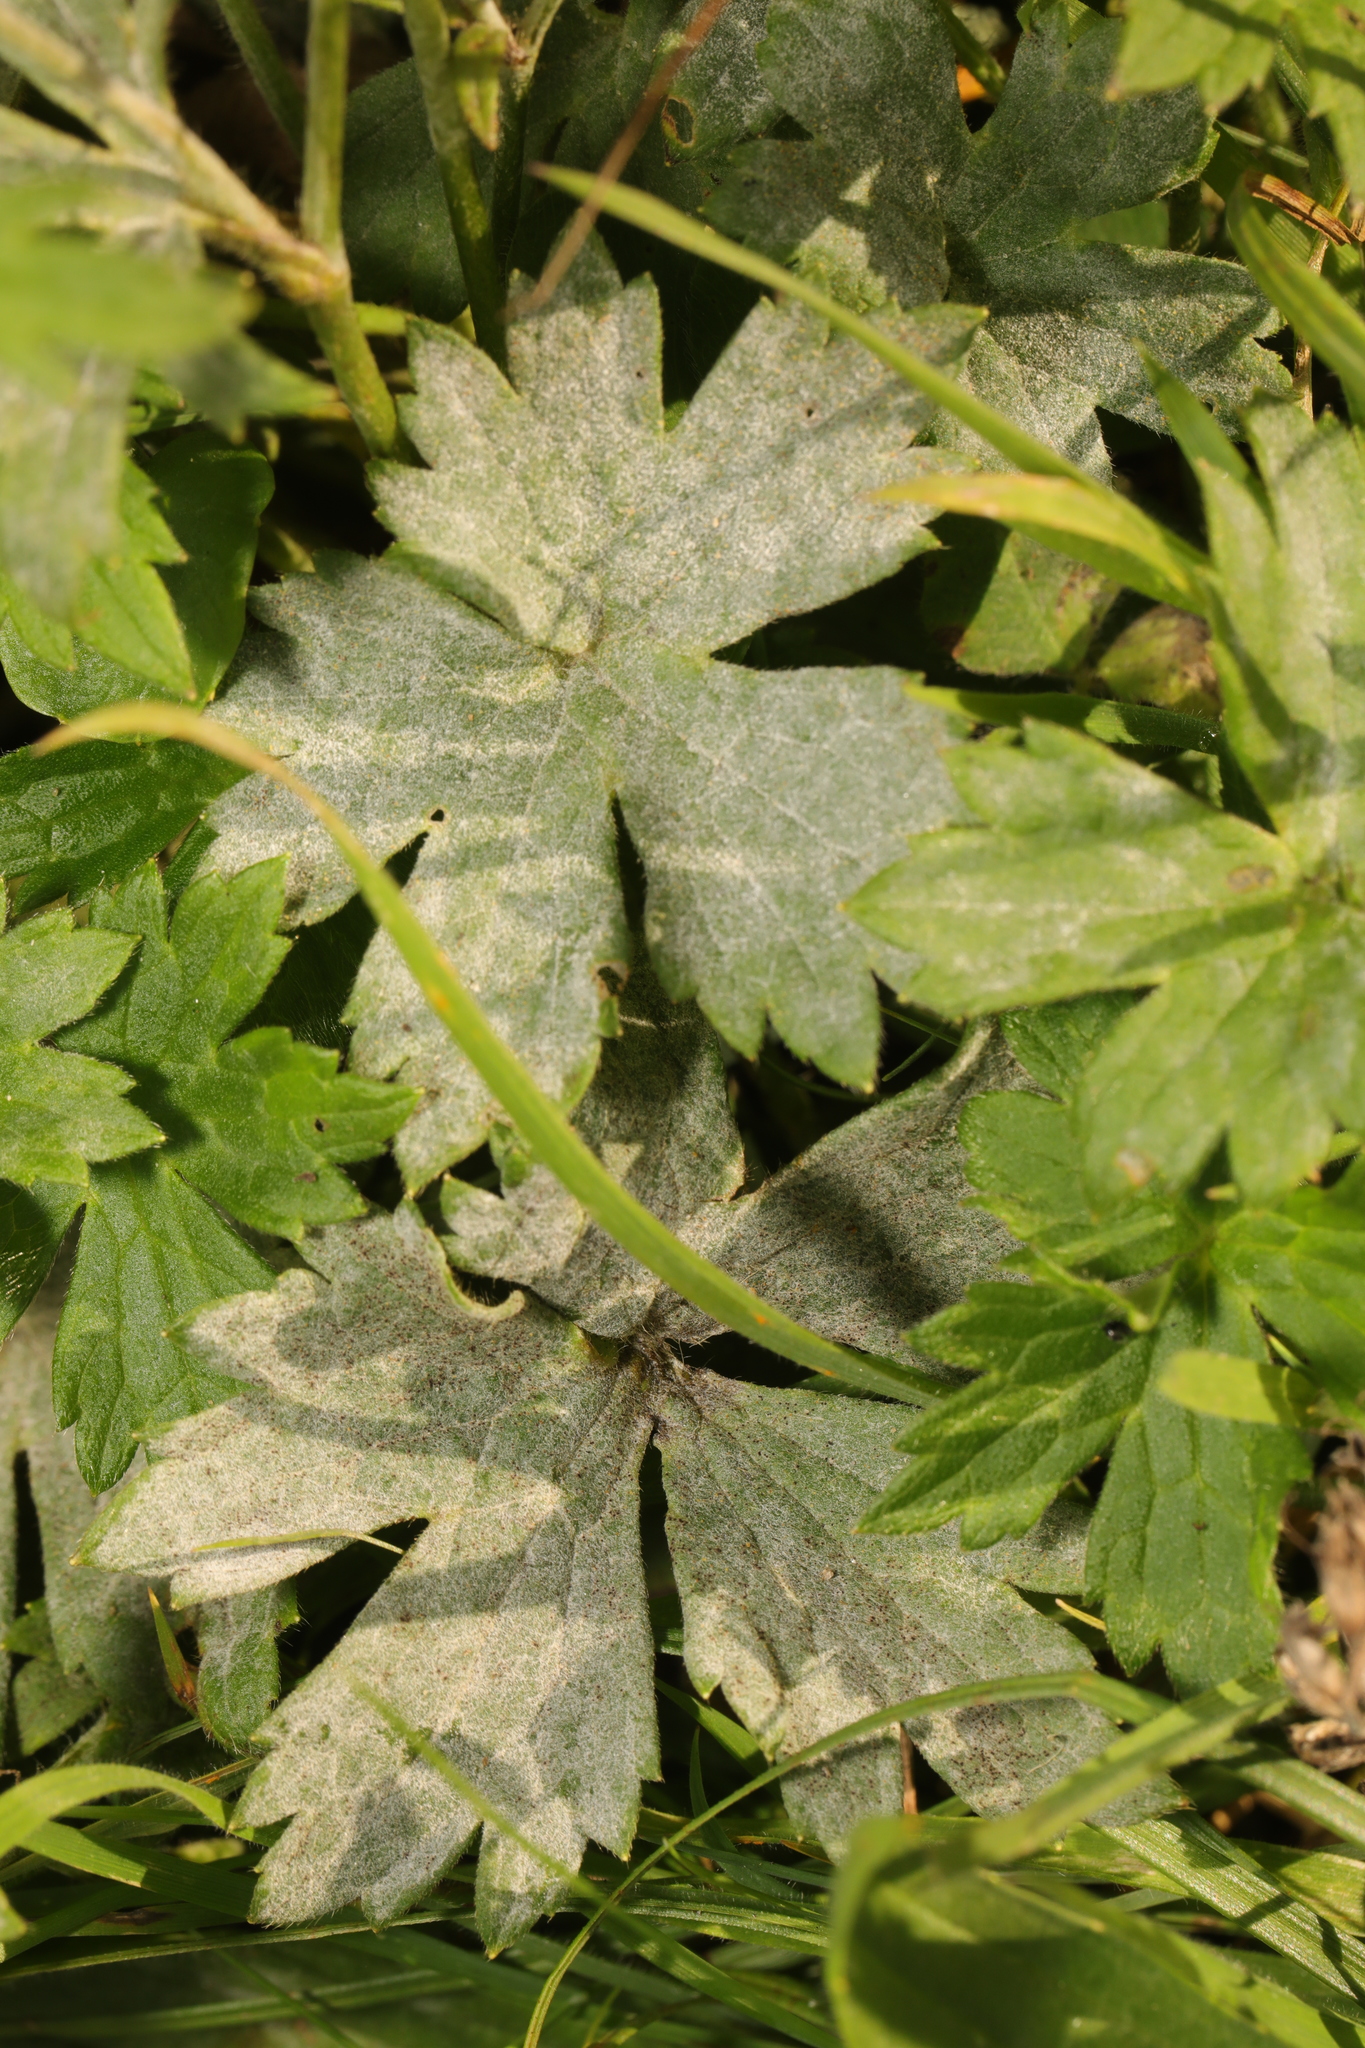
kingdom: Fungi
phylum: Ascomycota
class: Leotiomycetes
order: Helotiales
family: Erysiphaceae
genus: Erysiphe
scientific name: Erysiphe aquilegiae
